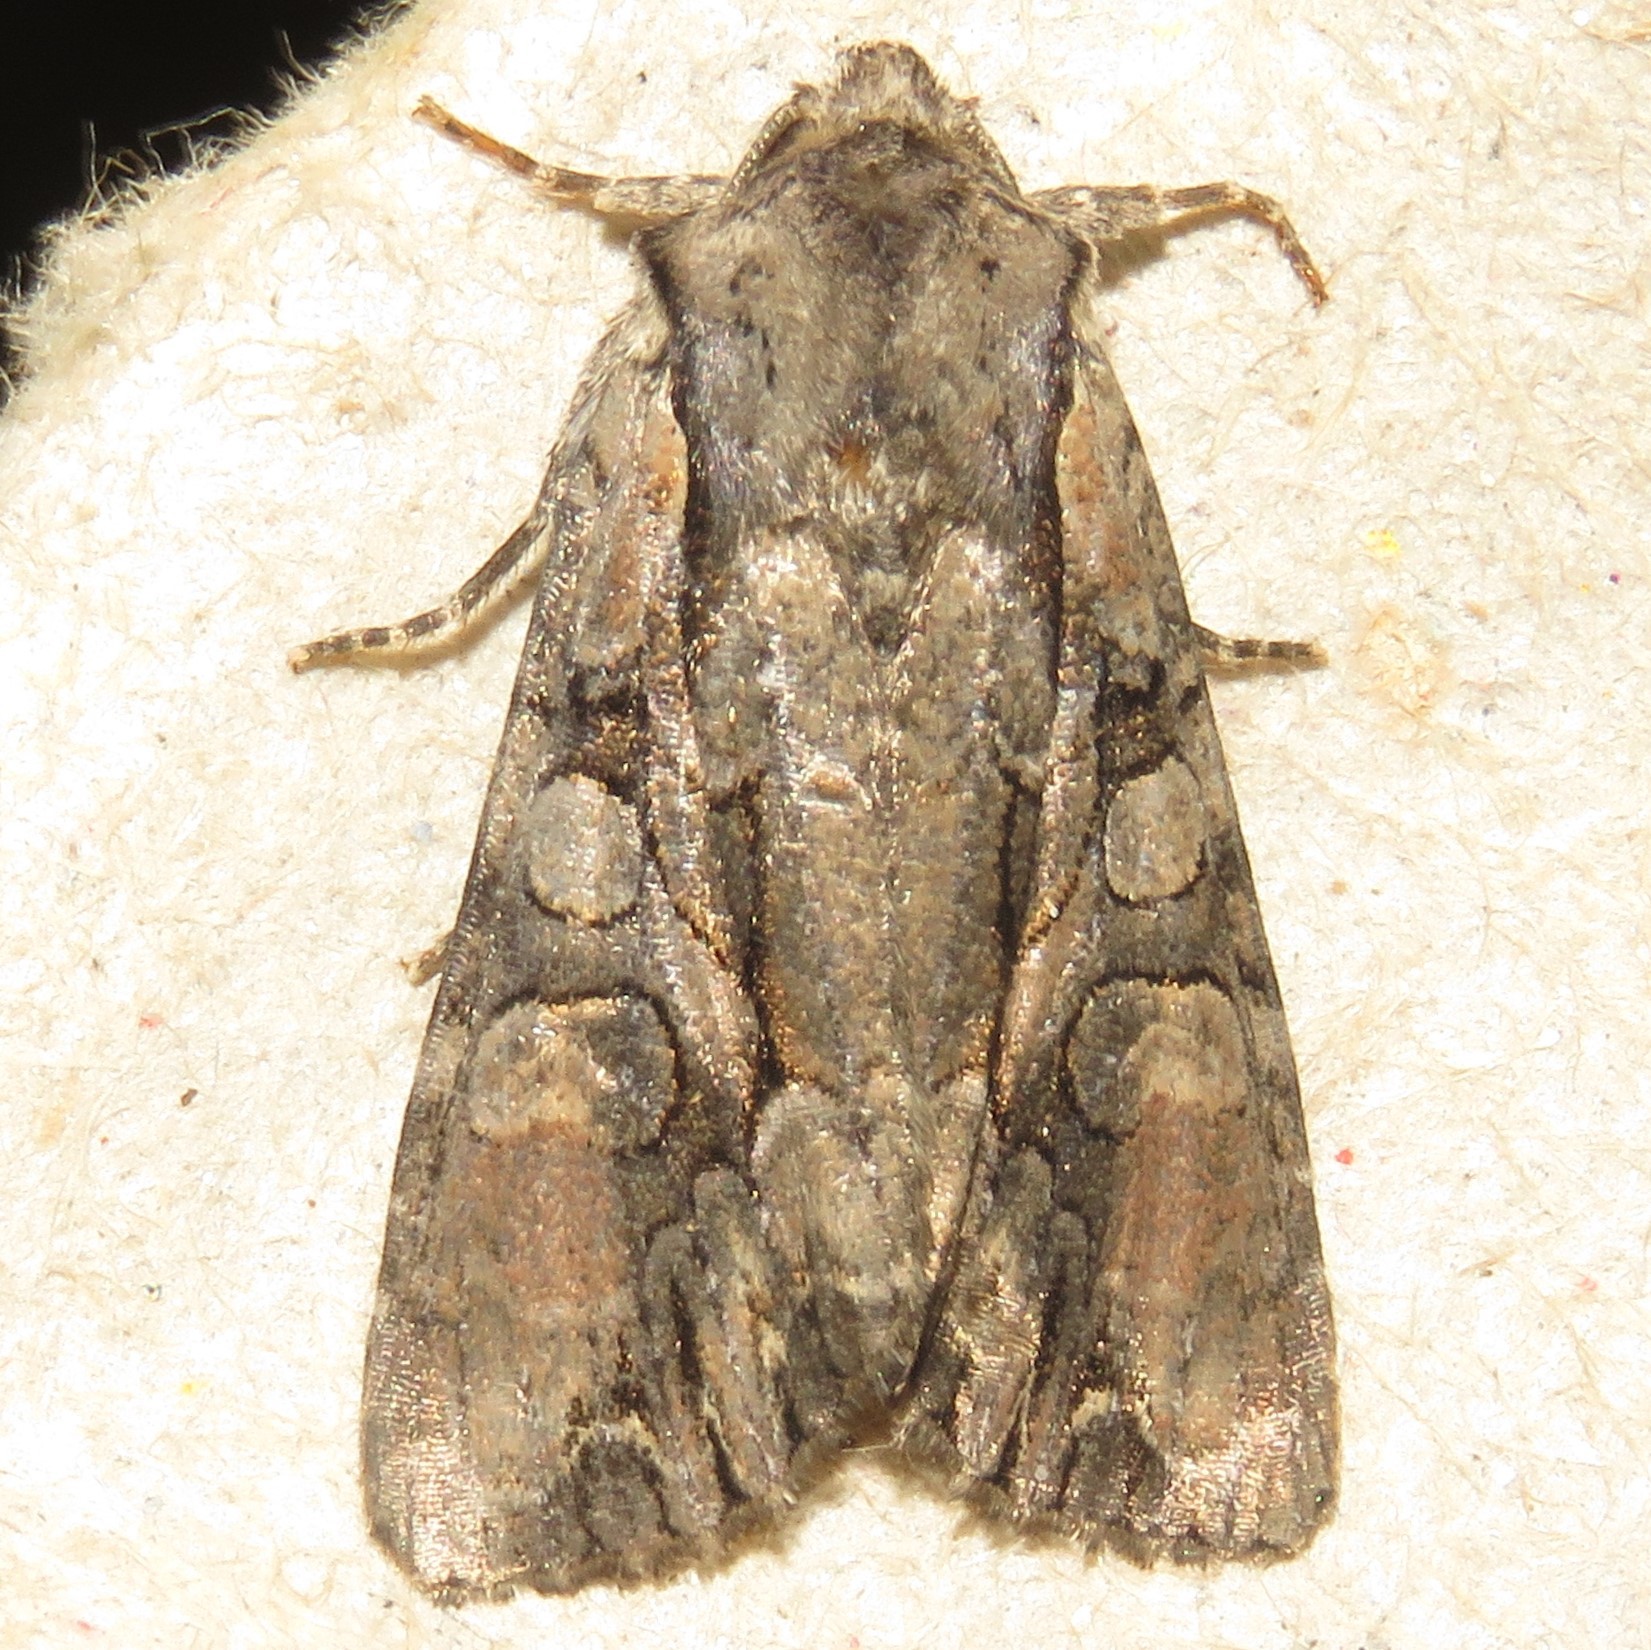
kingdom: Animalia
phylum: Arthropoda
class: Insecta
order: Lepidoptera
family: Noctuidae
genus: Lacanobia
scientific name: Lacanobia subjuncta
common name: Speckled cutworm moth
